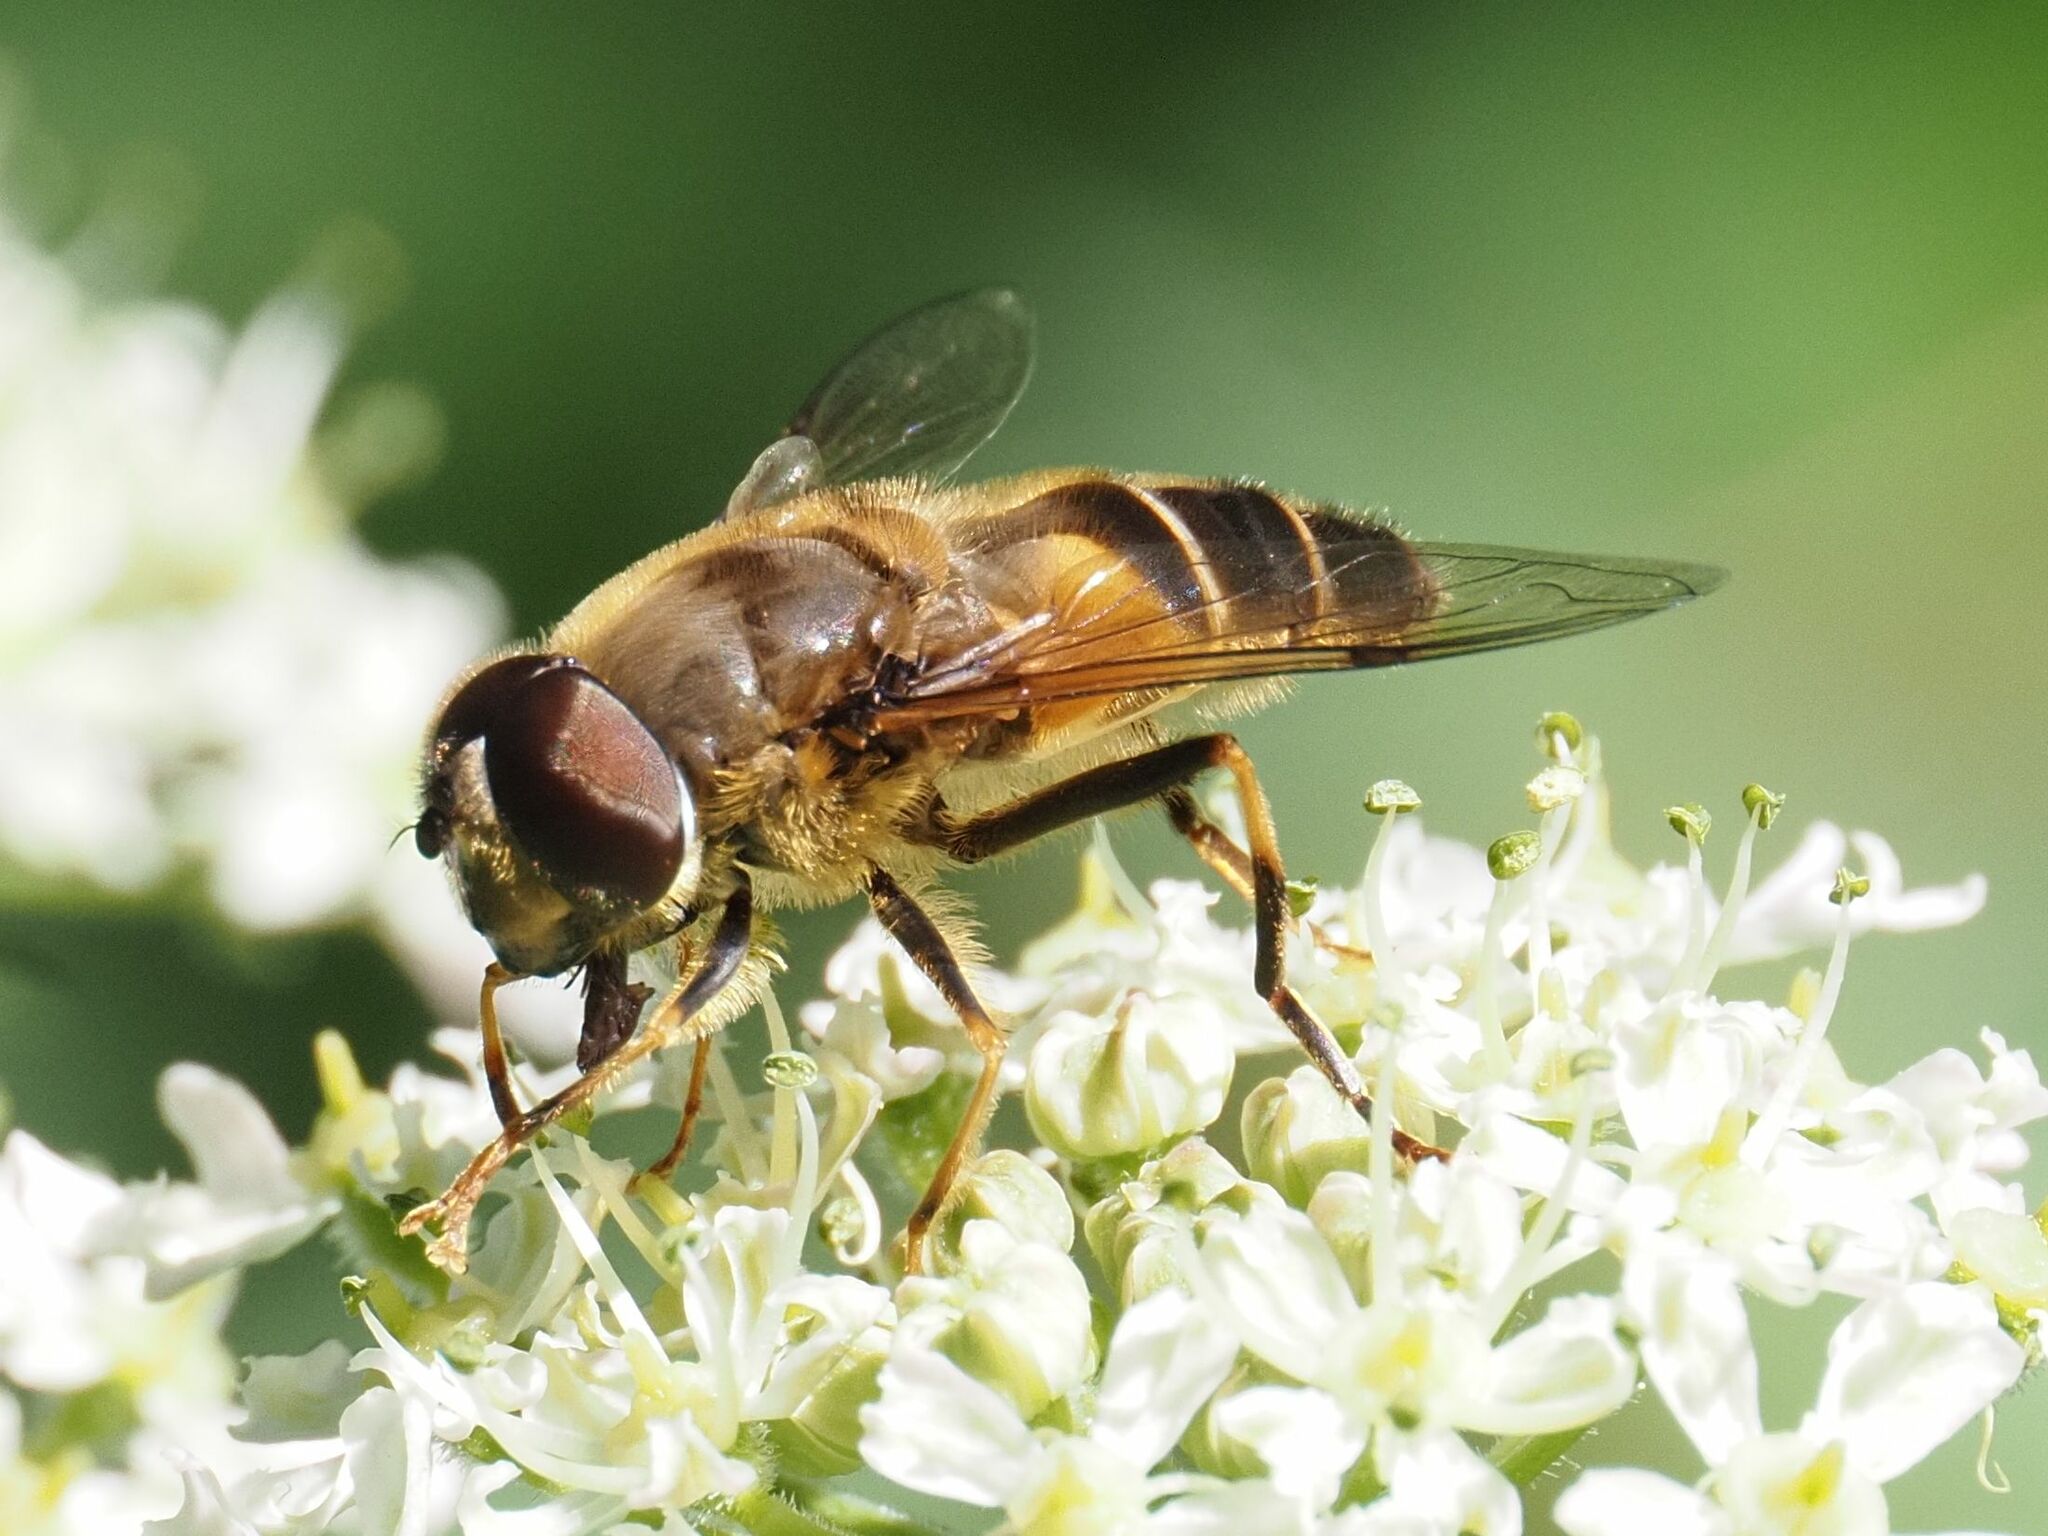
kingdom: Animalia
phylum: Arthropoda
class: Insecta
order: Diptera
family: Syrphidae
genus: Eristalis
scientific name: Eristalis pertinax
